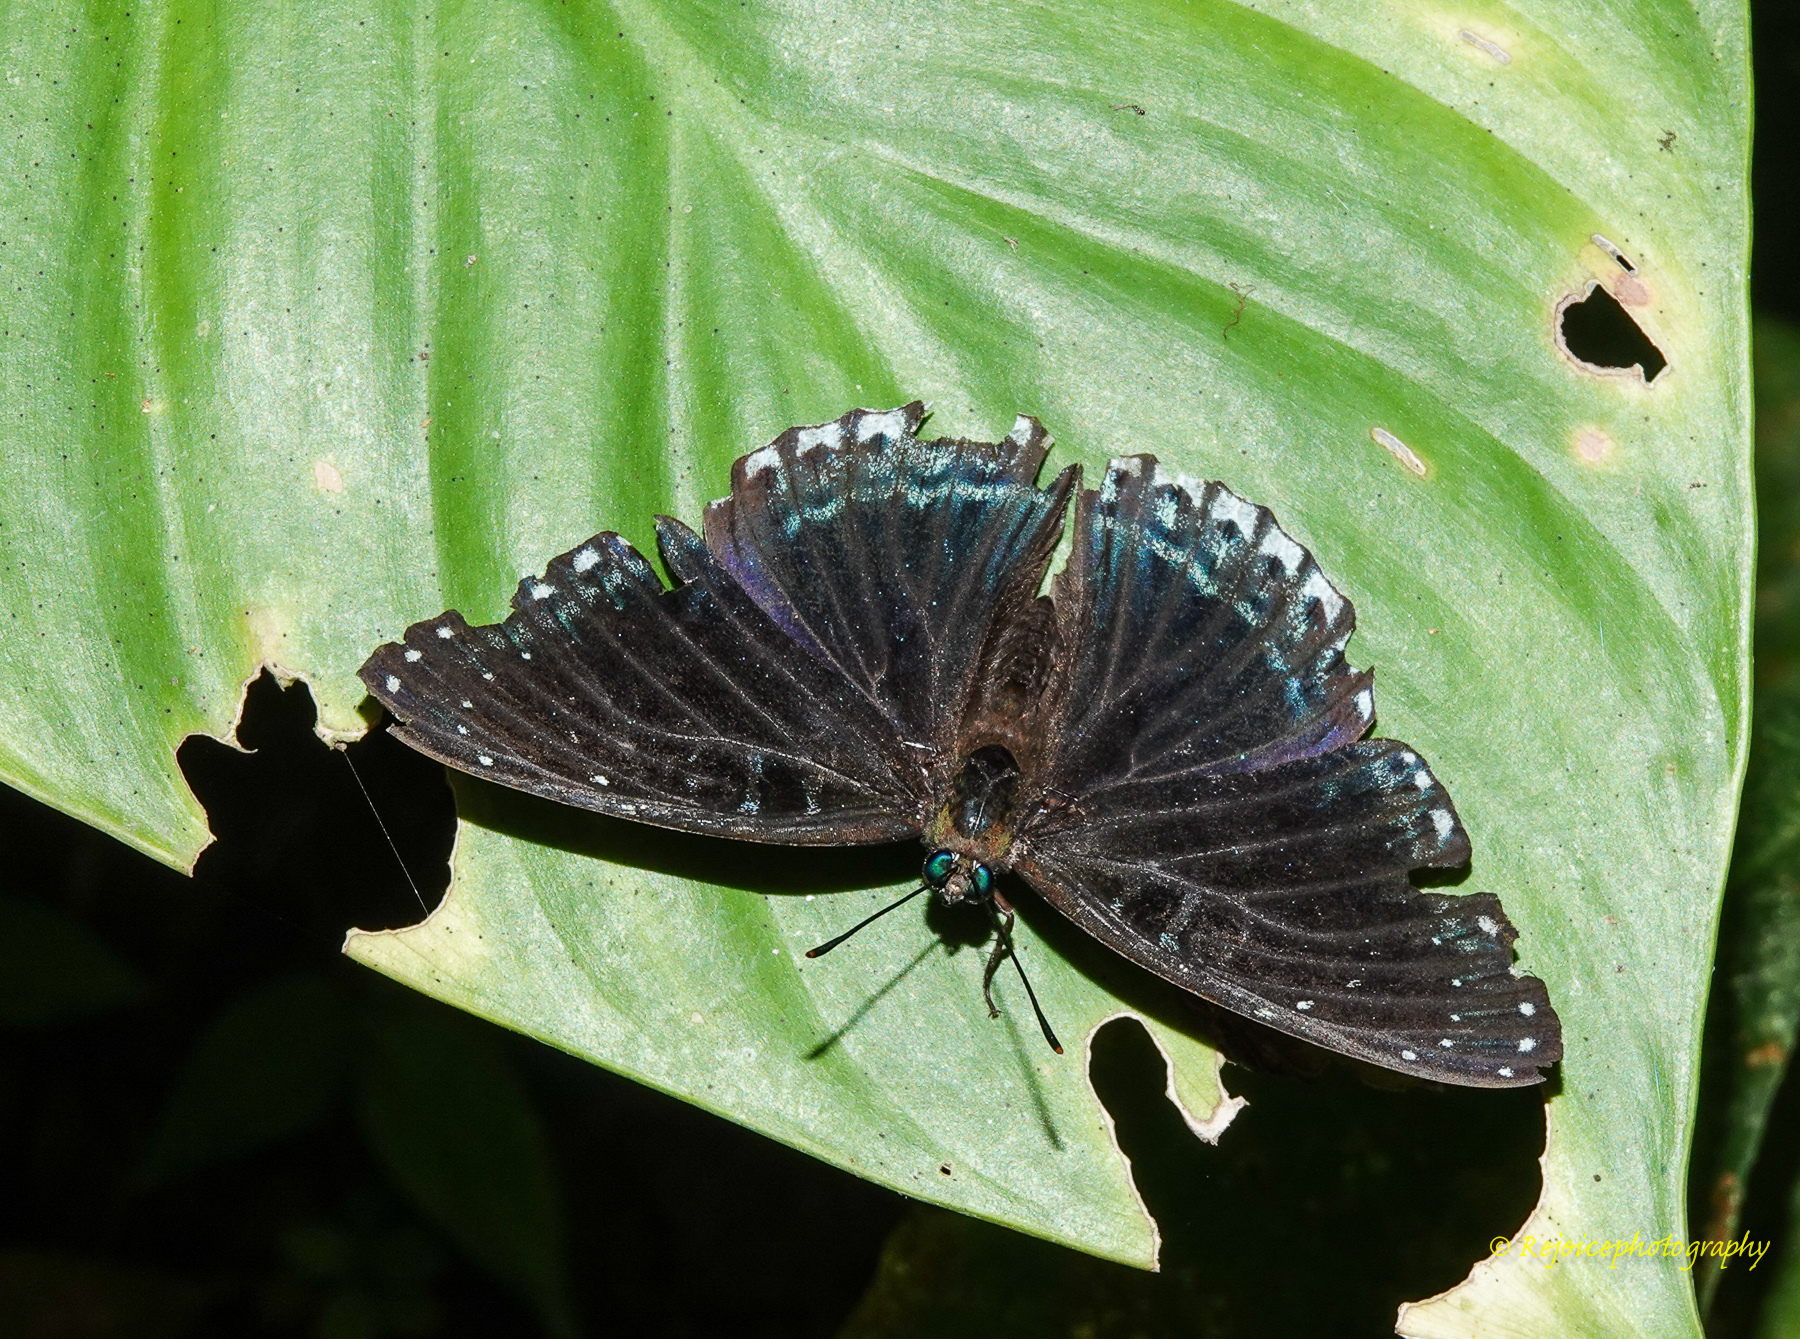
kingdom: Animalia
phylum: Arthropoda
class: Insecta
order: Lepidoptera
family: Nymphalidae
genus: Stibochiona
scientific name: Stibochiona nicea
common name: Popinjay
